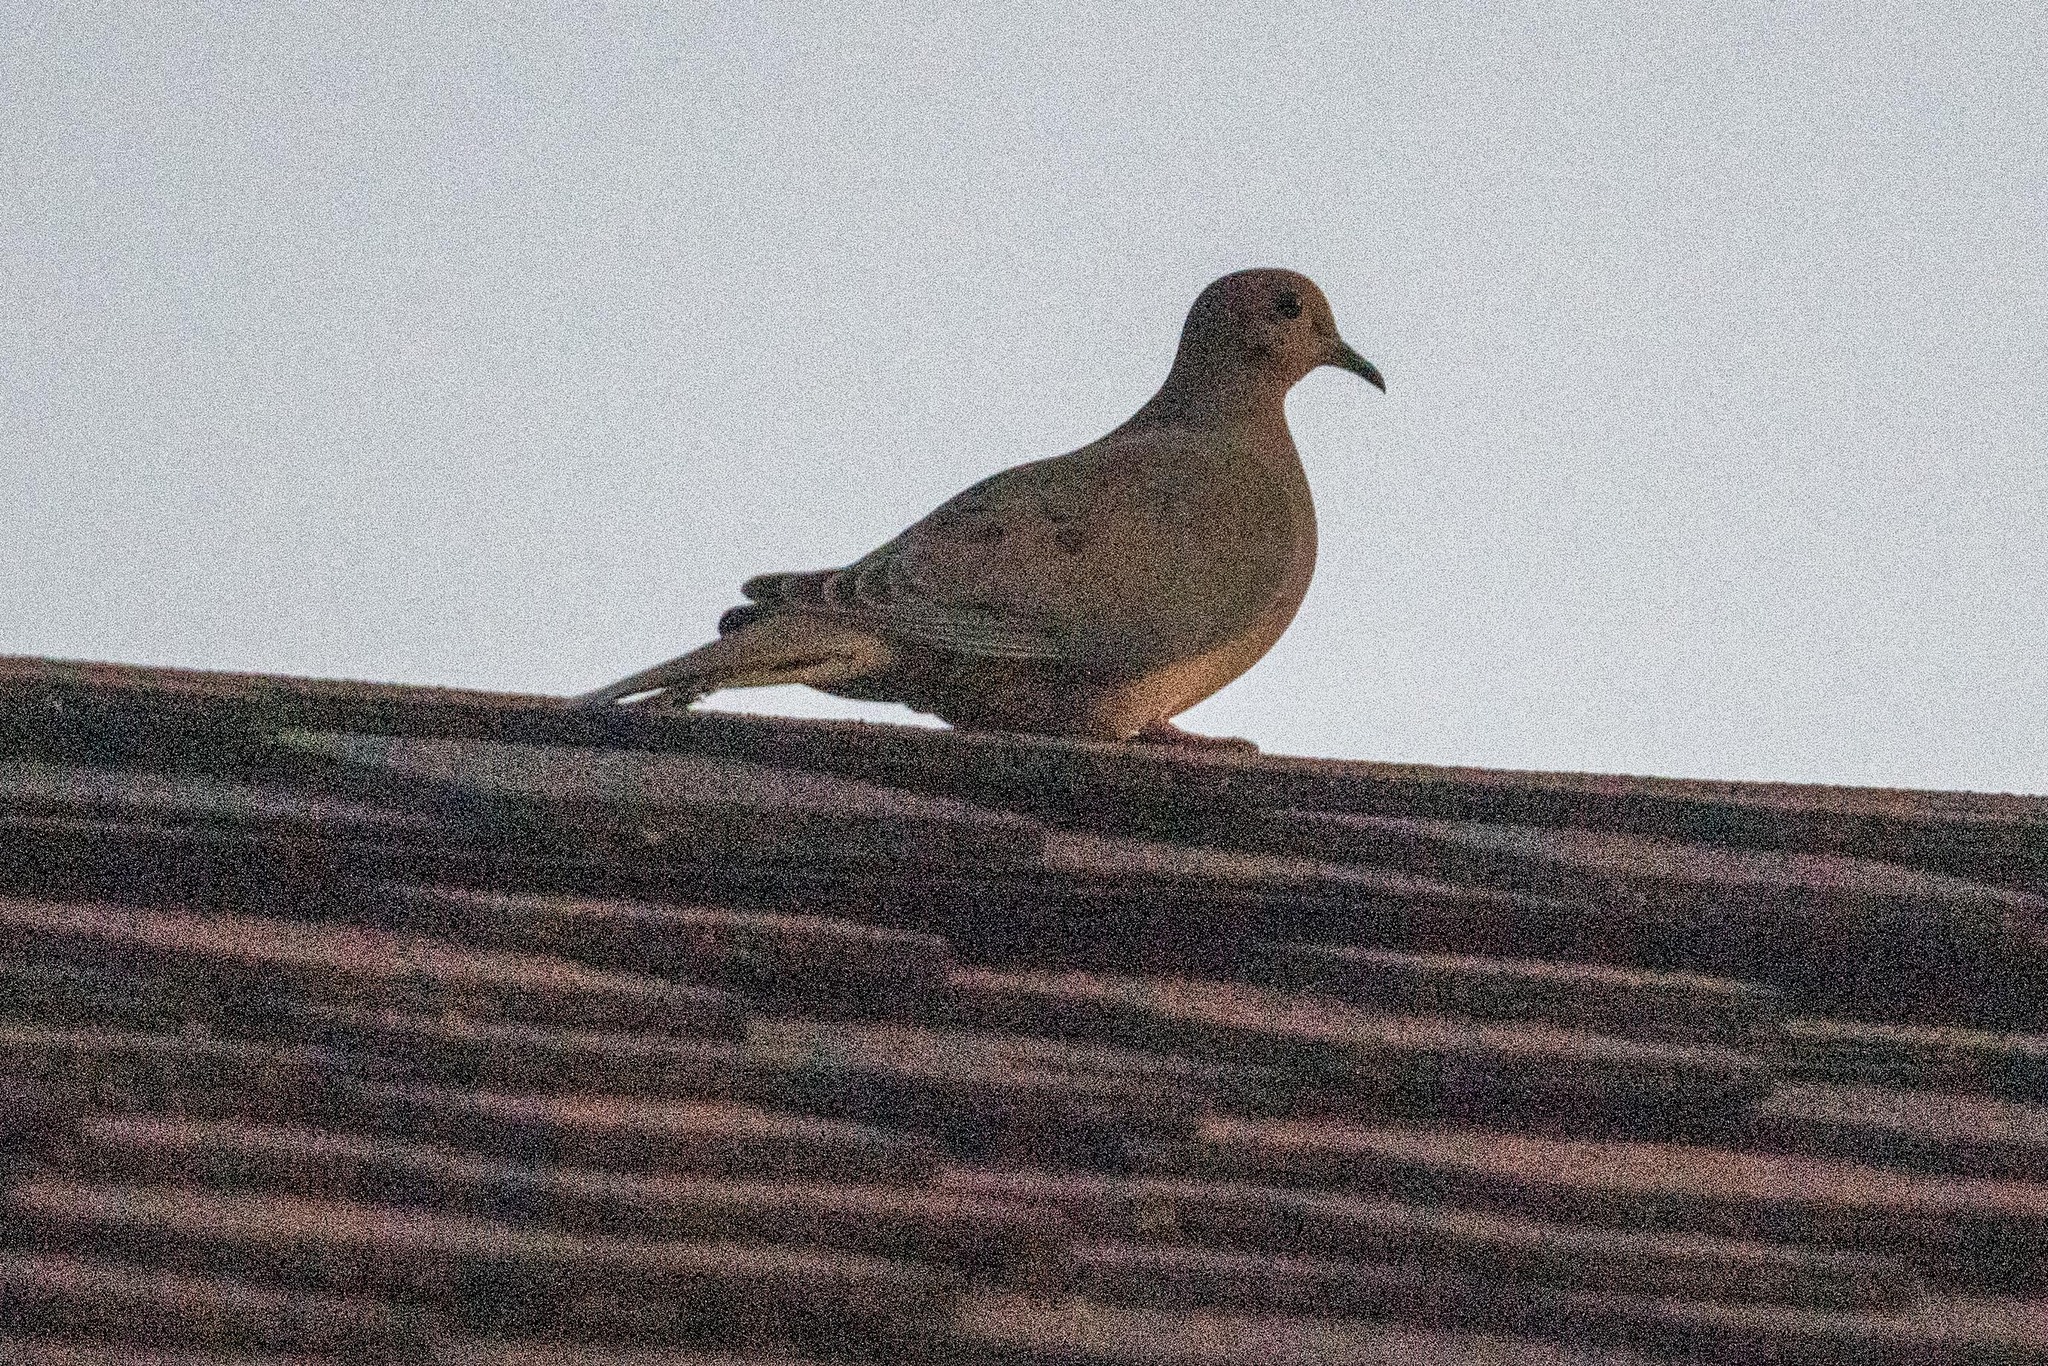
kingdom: Animalia
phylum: Chordata
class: Aves
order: Columbiformes
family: Columbidae
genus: Zenaida
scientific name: Zenaida macroura
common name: Mourning dove
